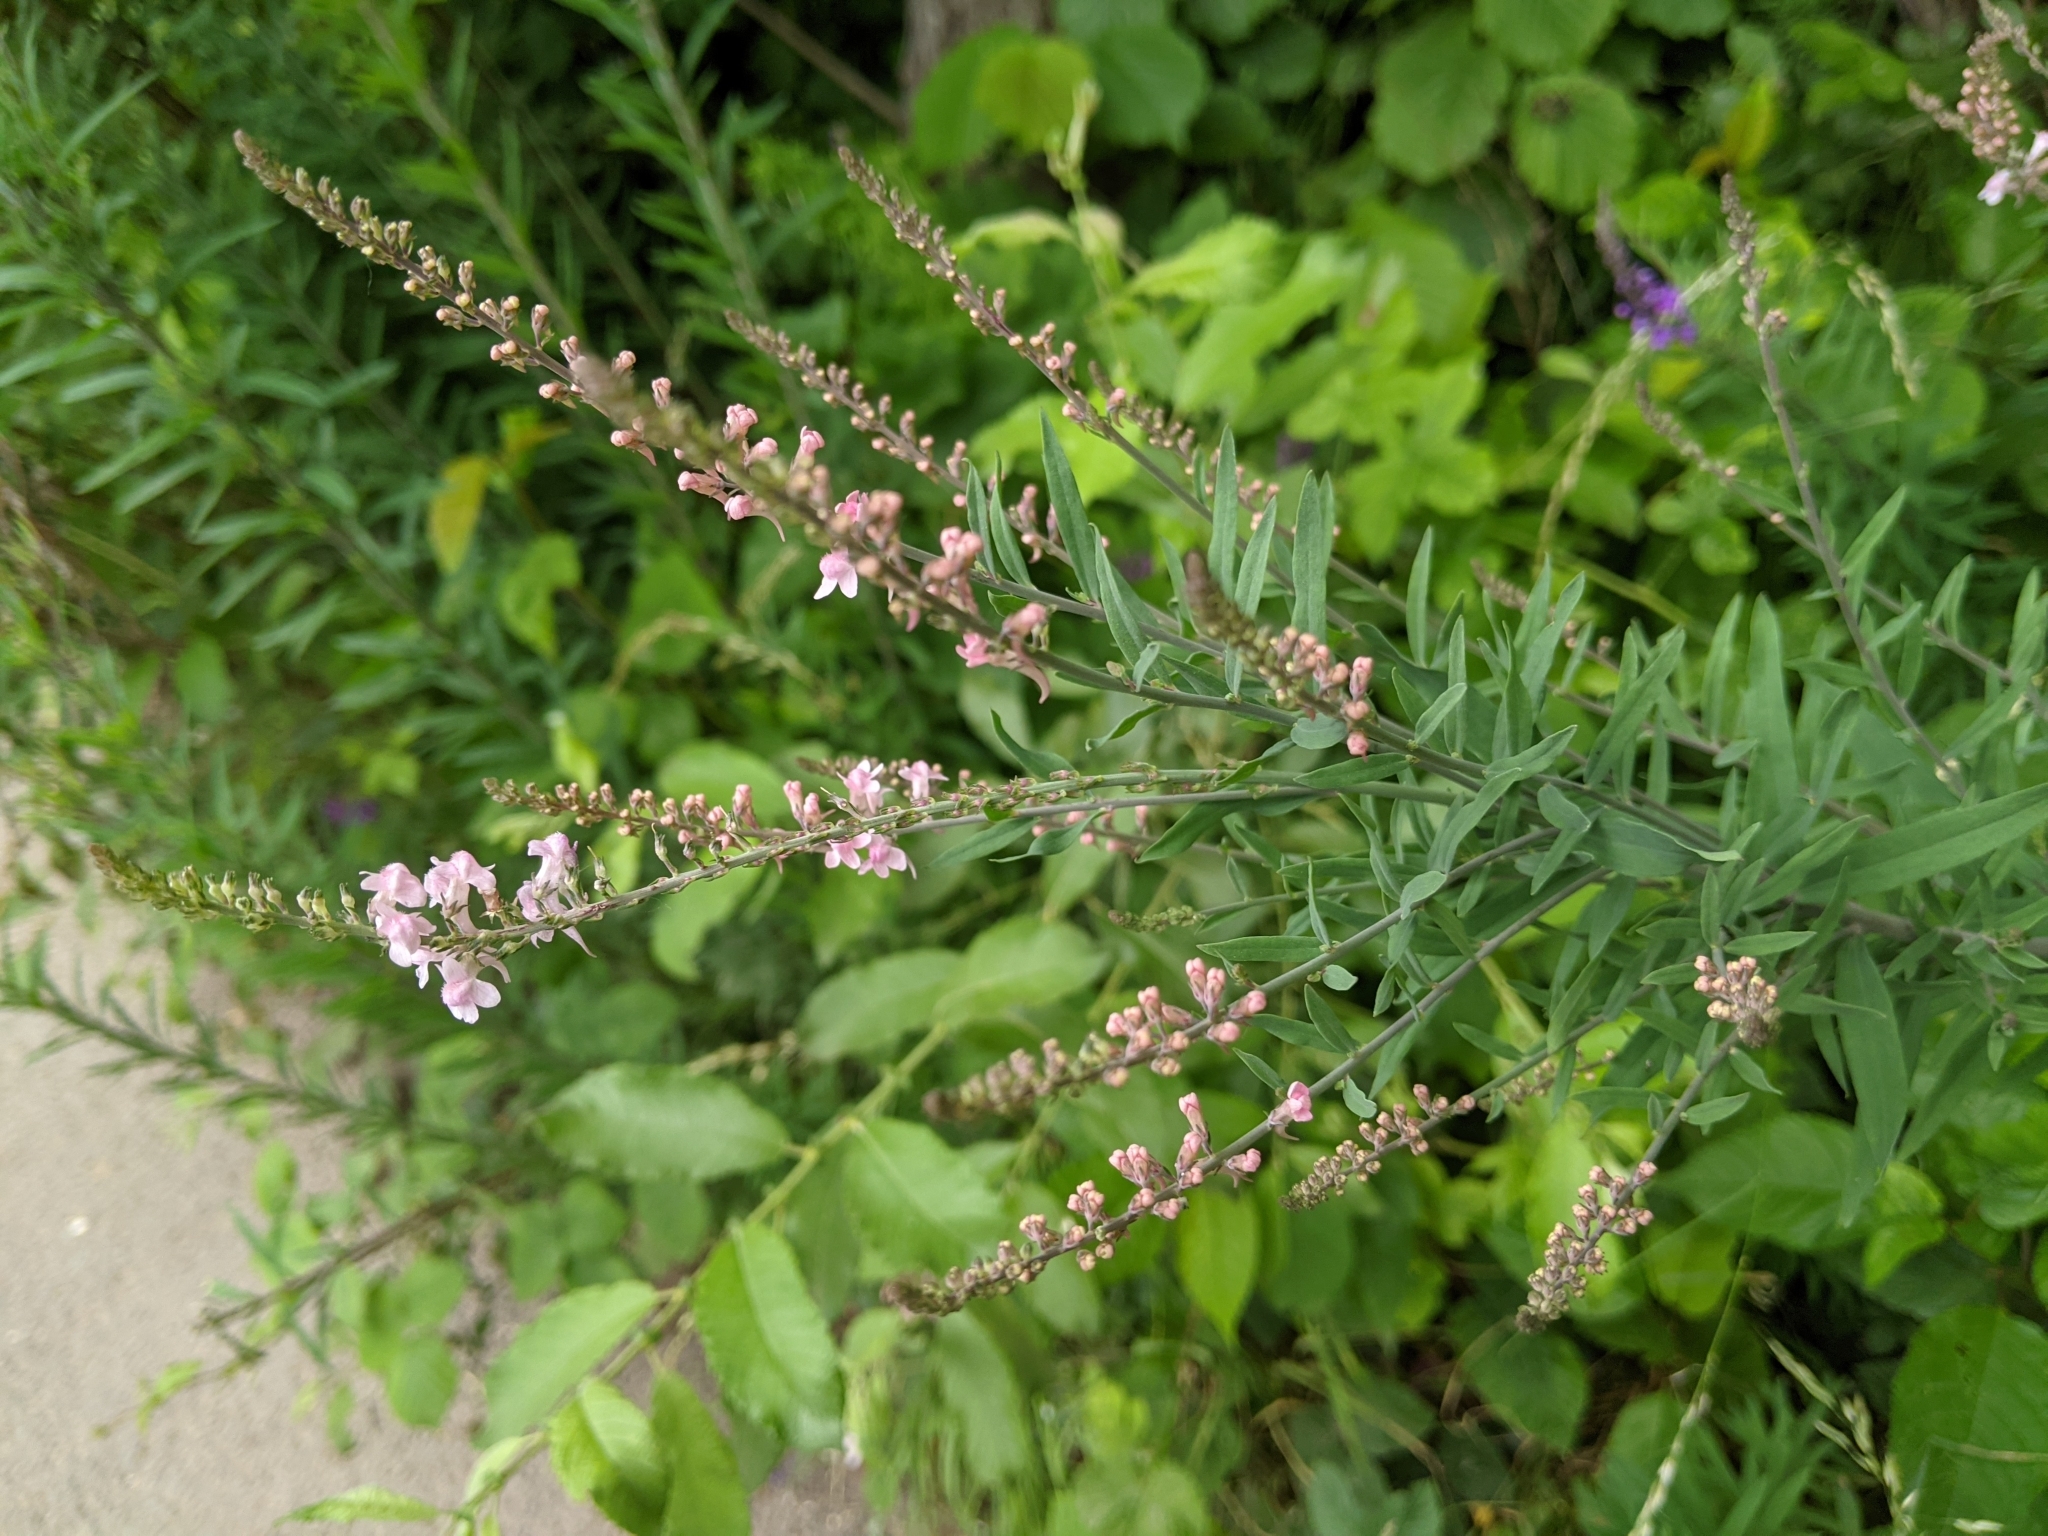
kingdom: Plantae
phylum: Tracheophyta
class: Magnoliopsida
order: Lamiales
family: Plantaginaceae
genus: Linaria
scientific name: Linaria purpurea
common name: Purple toadflax
